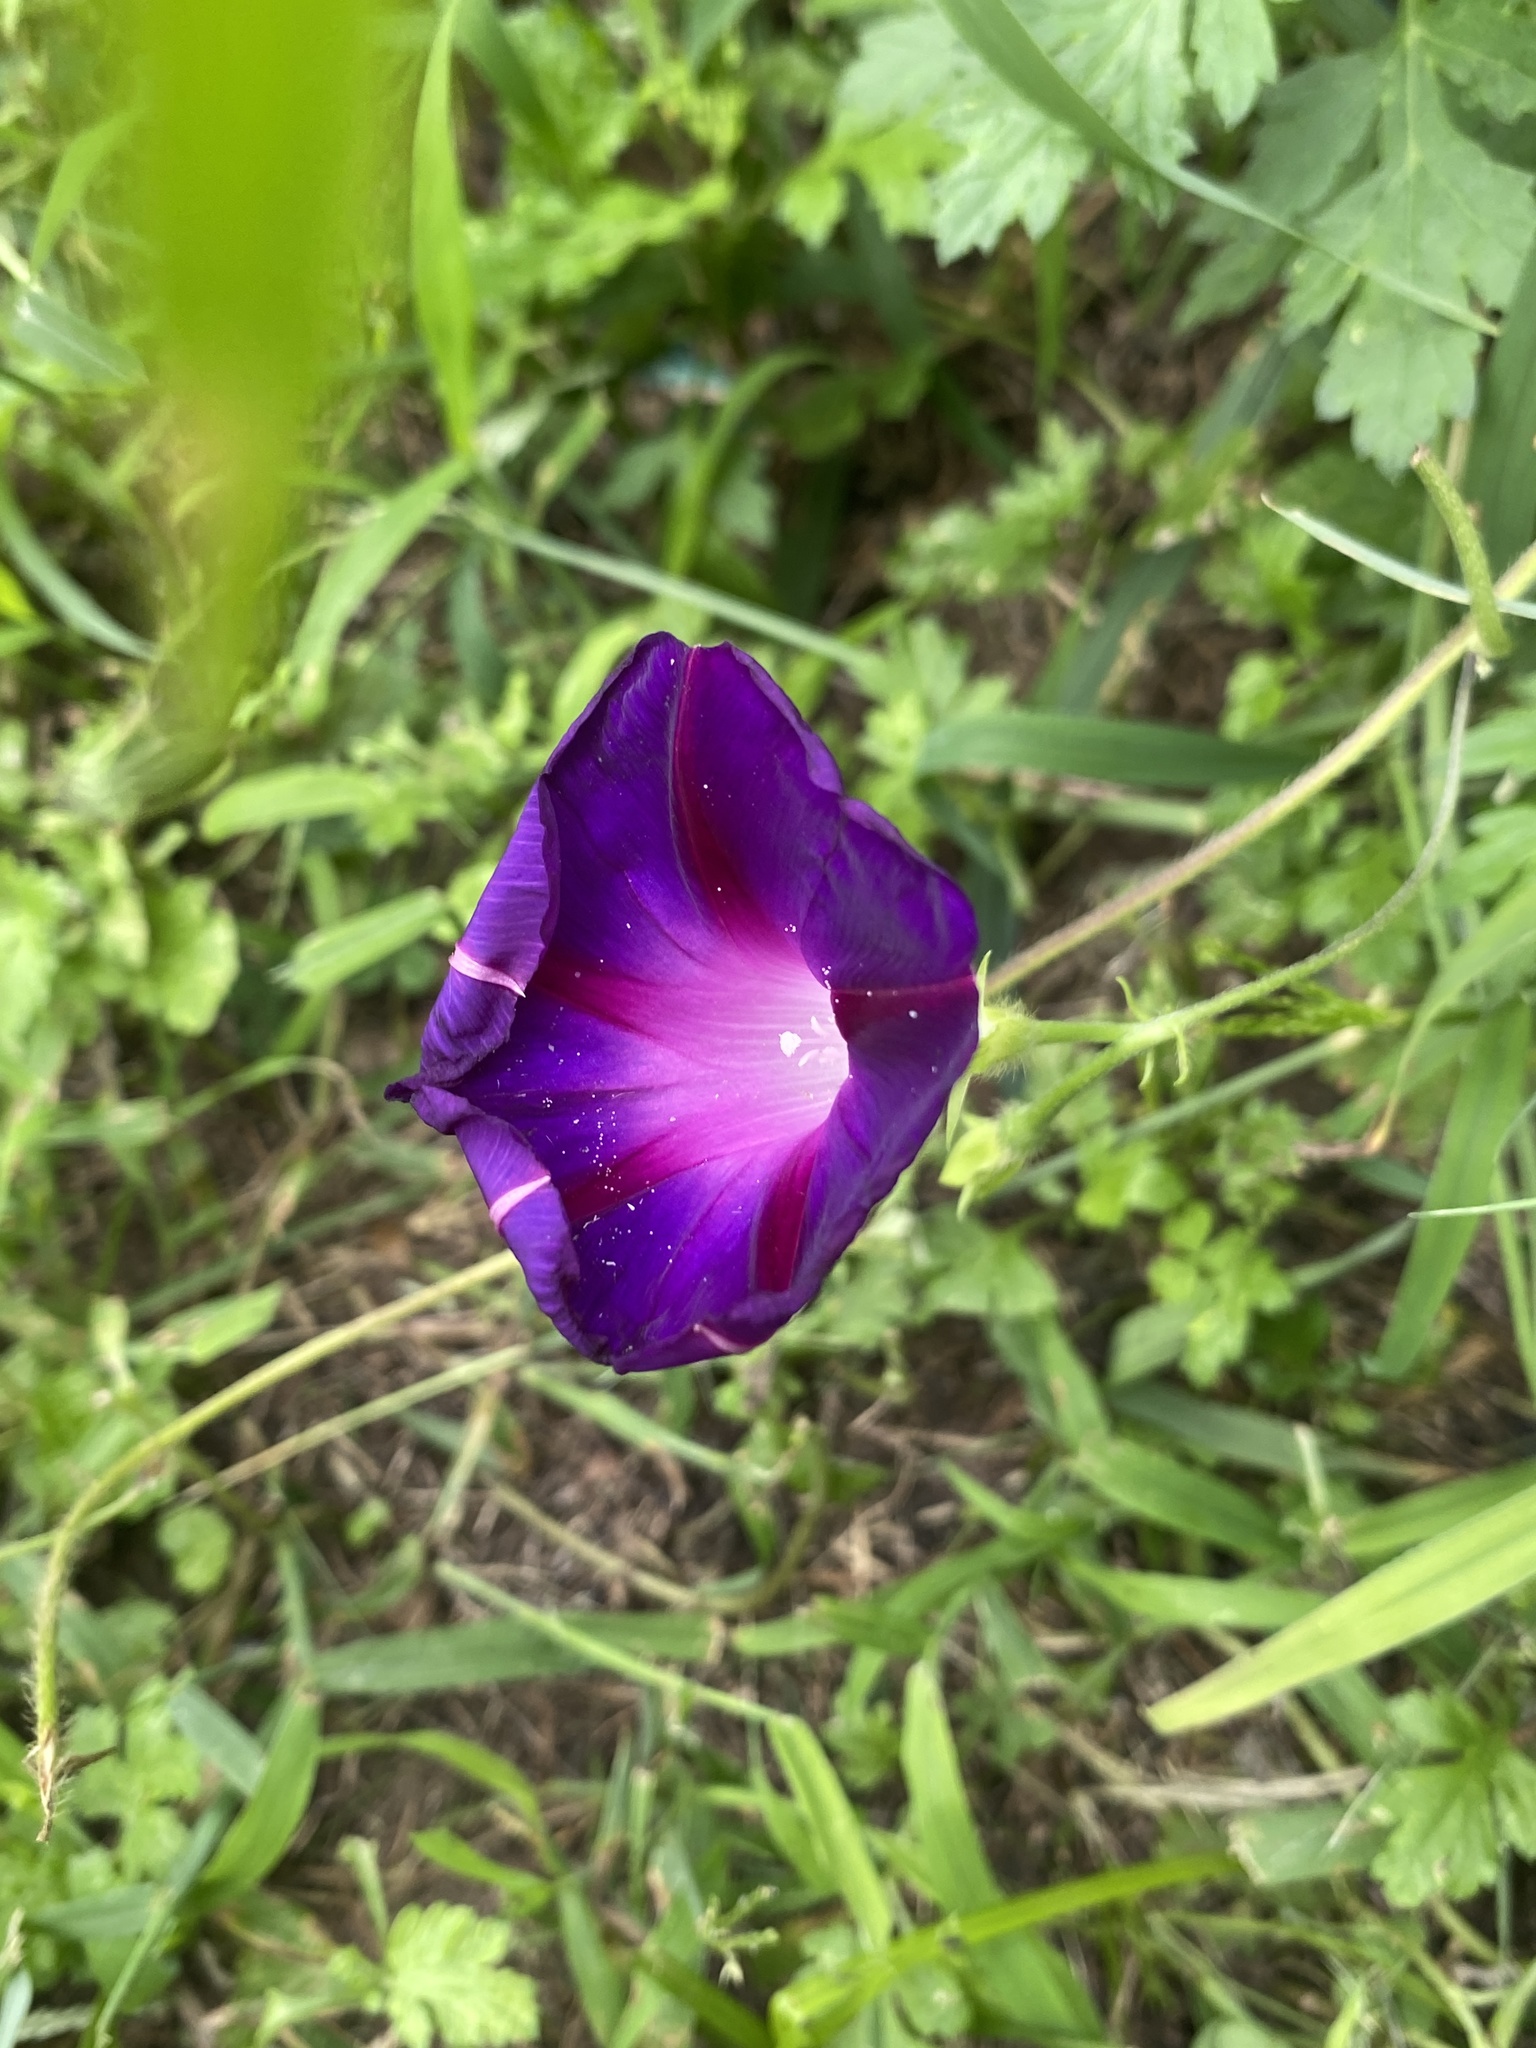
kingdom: Plantae
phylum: Tracheophyta
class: Magnoliopsida
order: Solanales
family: Convolvulaceae
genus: Ipomoea
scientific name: Ipomoea purpurea
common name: Common morning-glory
